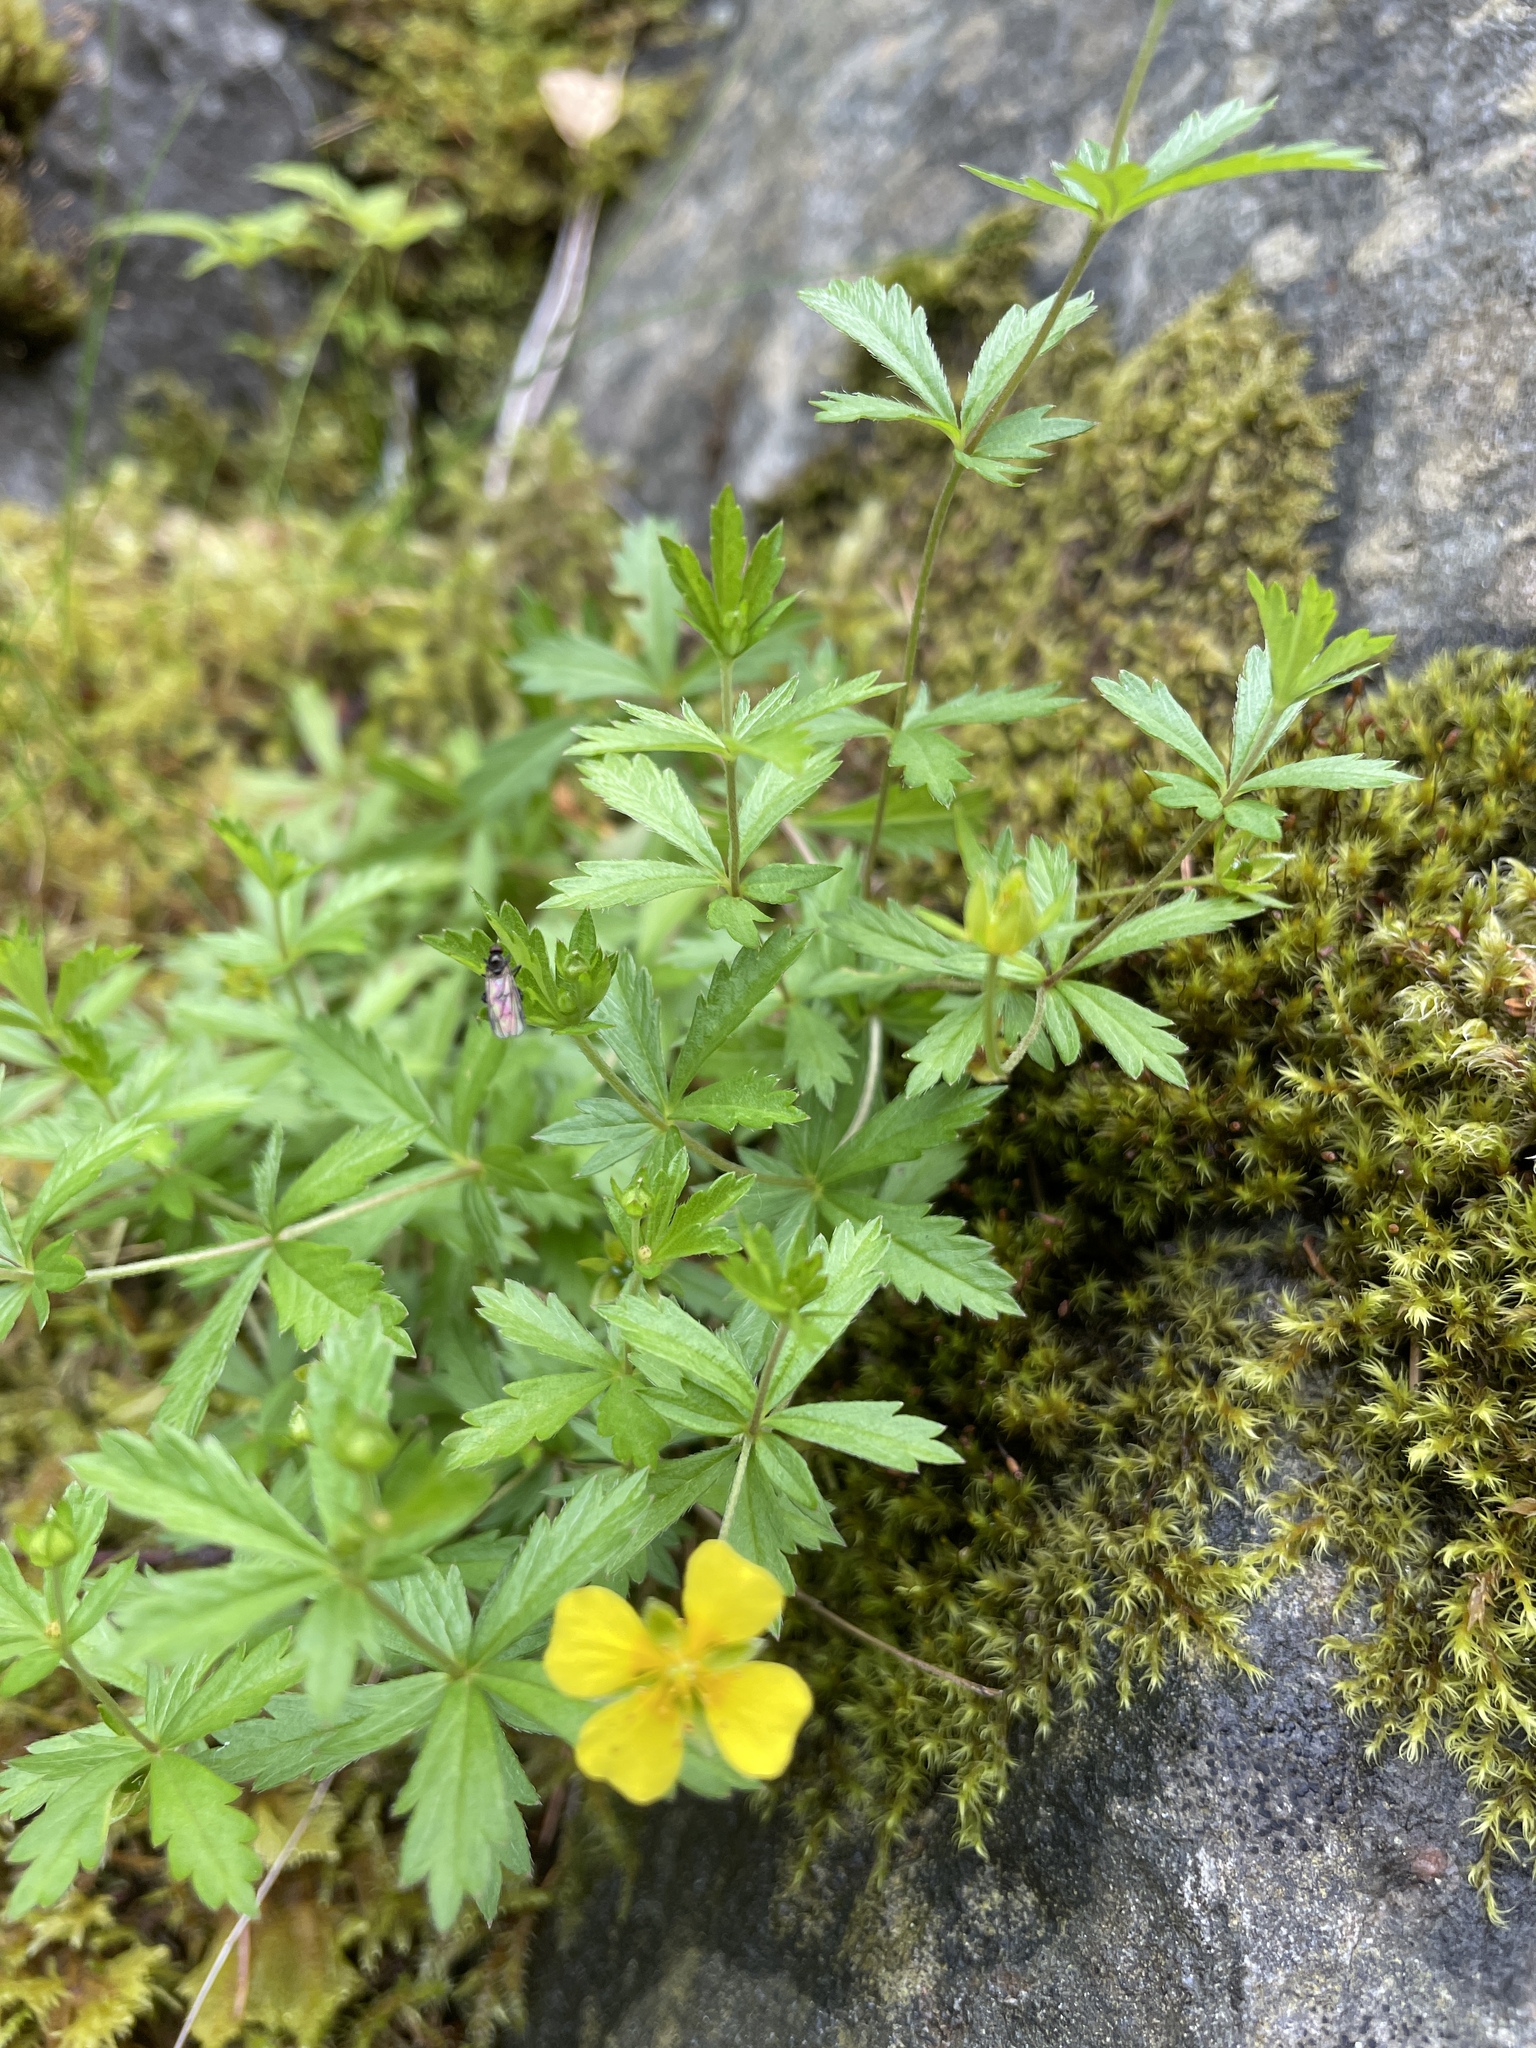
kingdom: Plantae
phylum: Tracheophyta
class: Magnoliopsida
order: Rosales
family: Rosaceae
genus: Potentilla
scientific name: Potentilla erecta
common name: Tormentil
